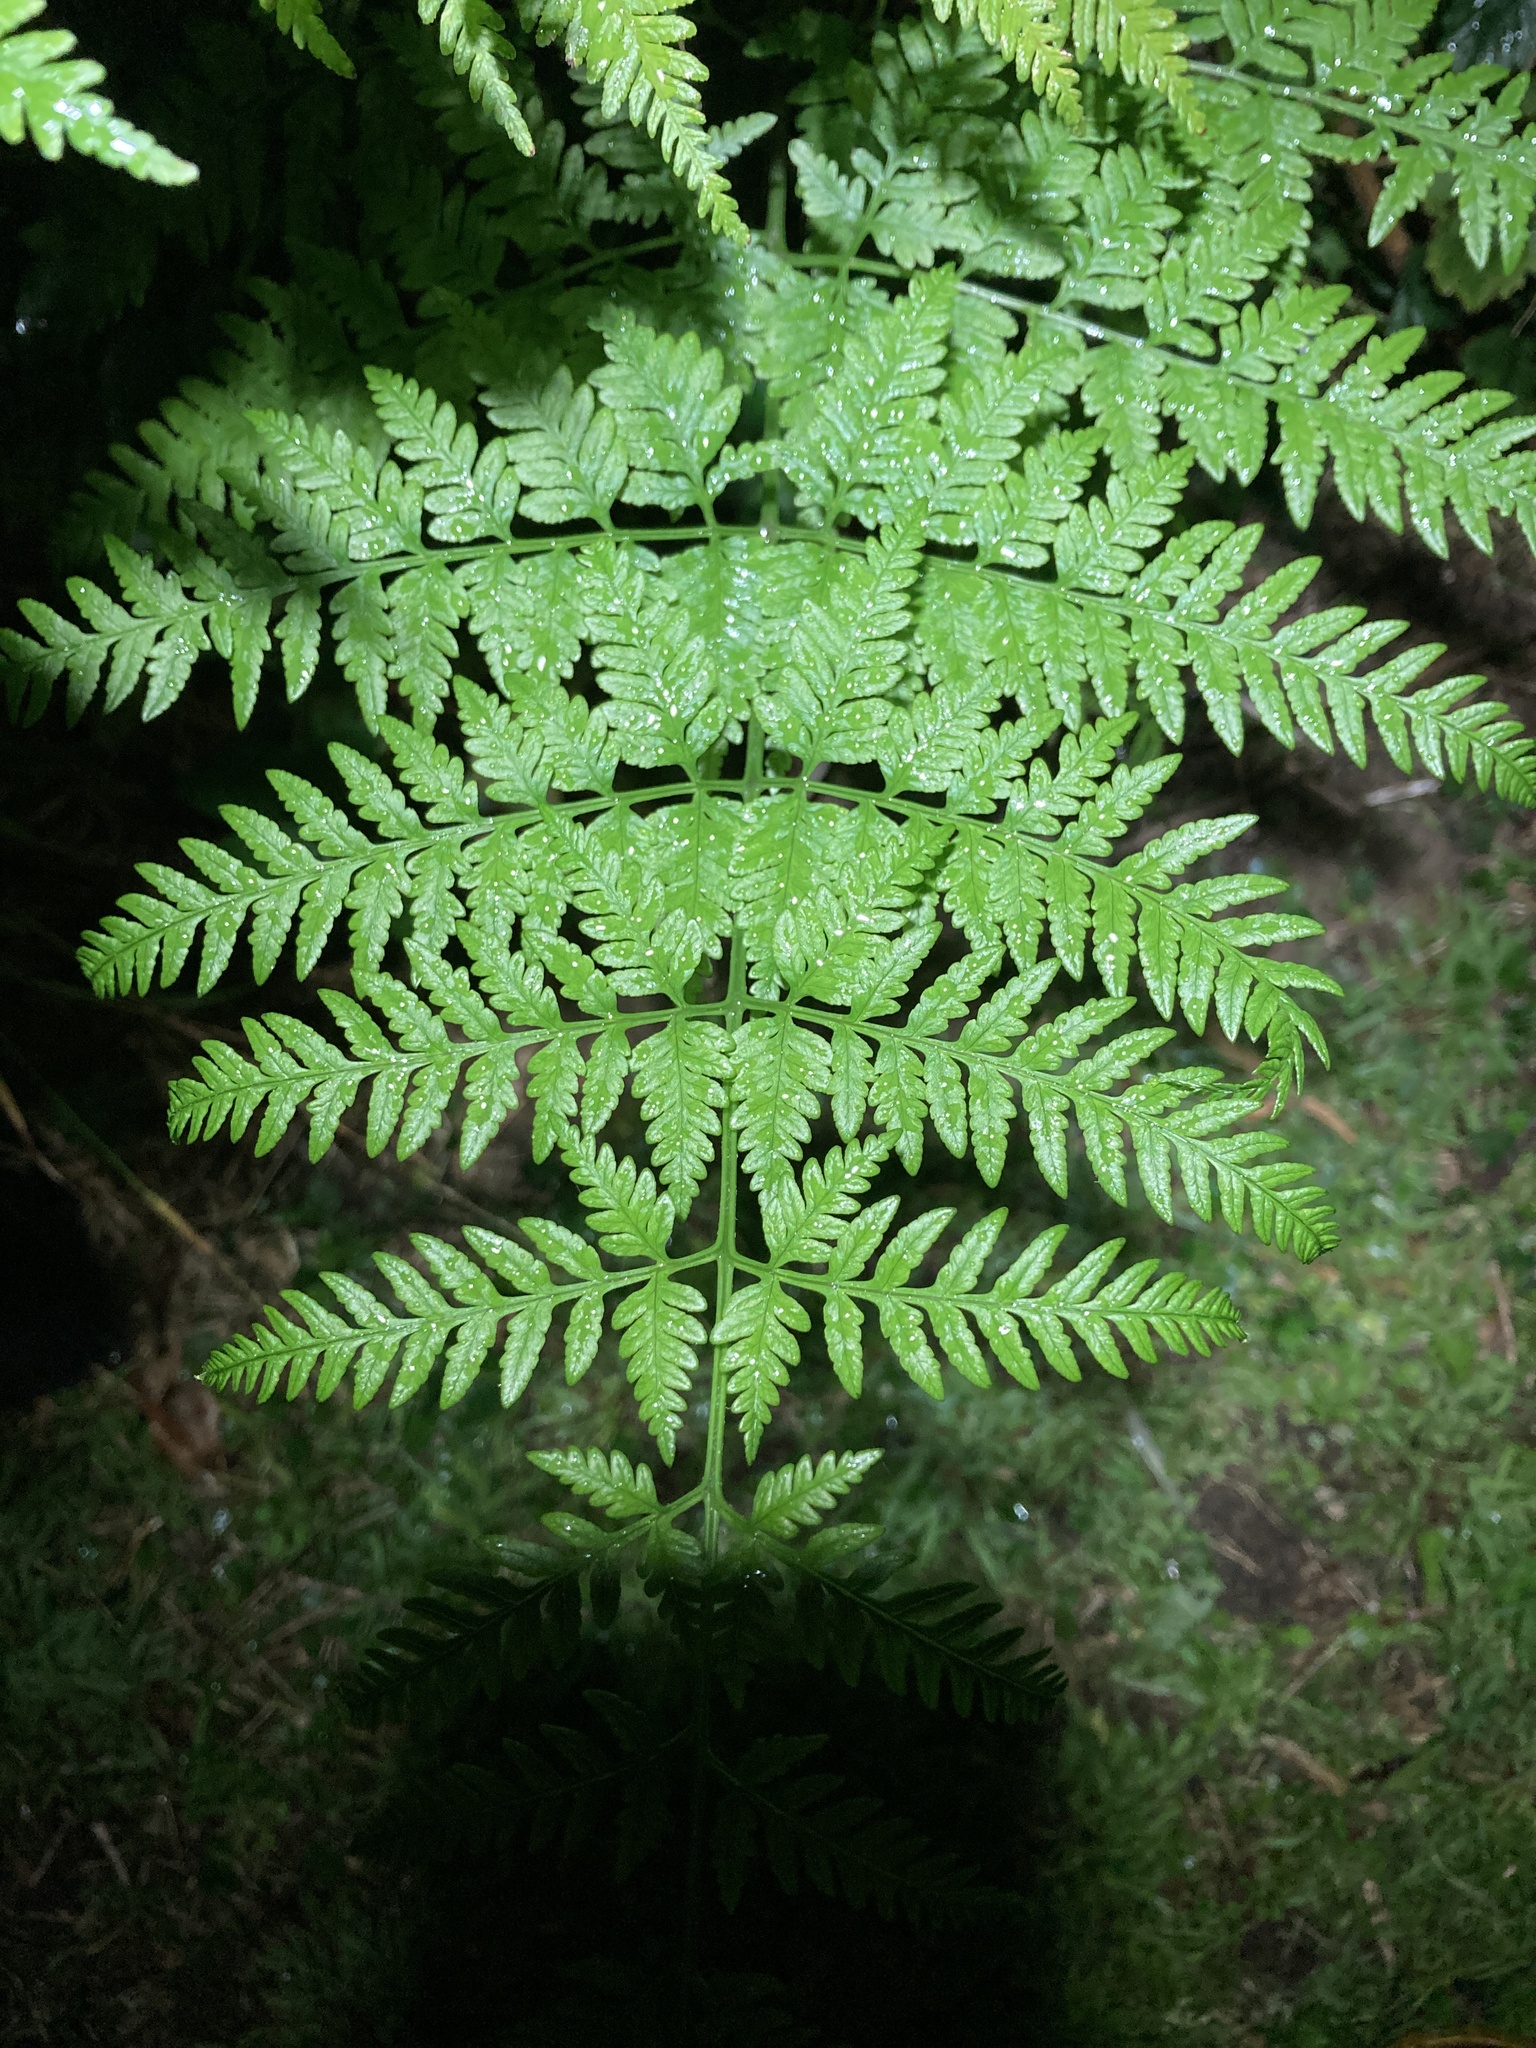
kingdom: Plantae
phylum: Tracheophyta
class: Polypodiopsida
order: Polypodiales
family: Pteridaceae
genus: Pteris
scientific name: Pteris tremula
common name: Australian brake
